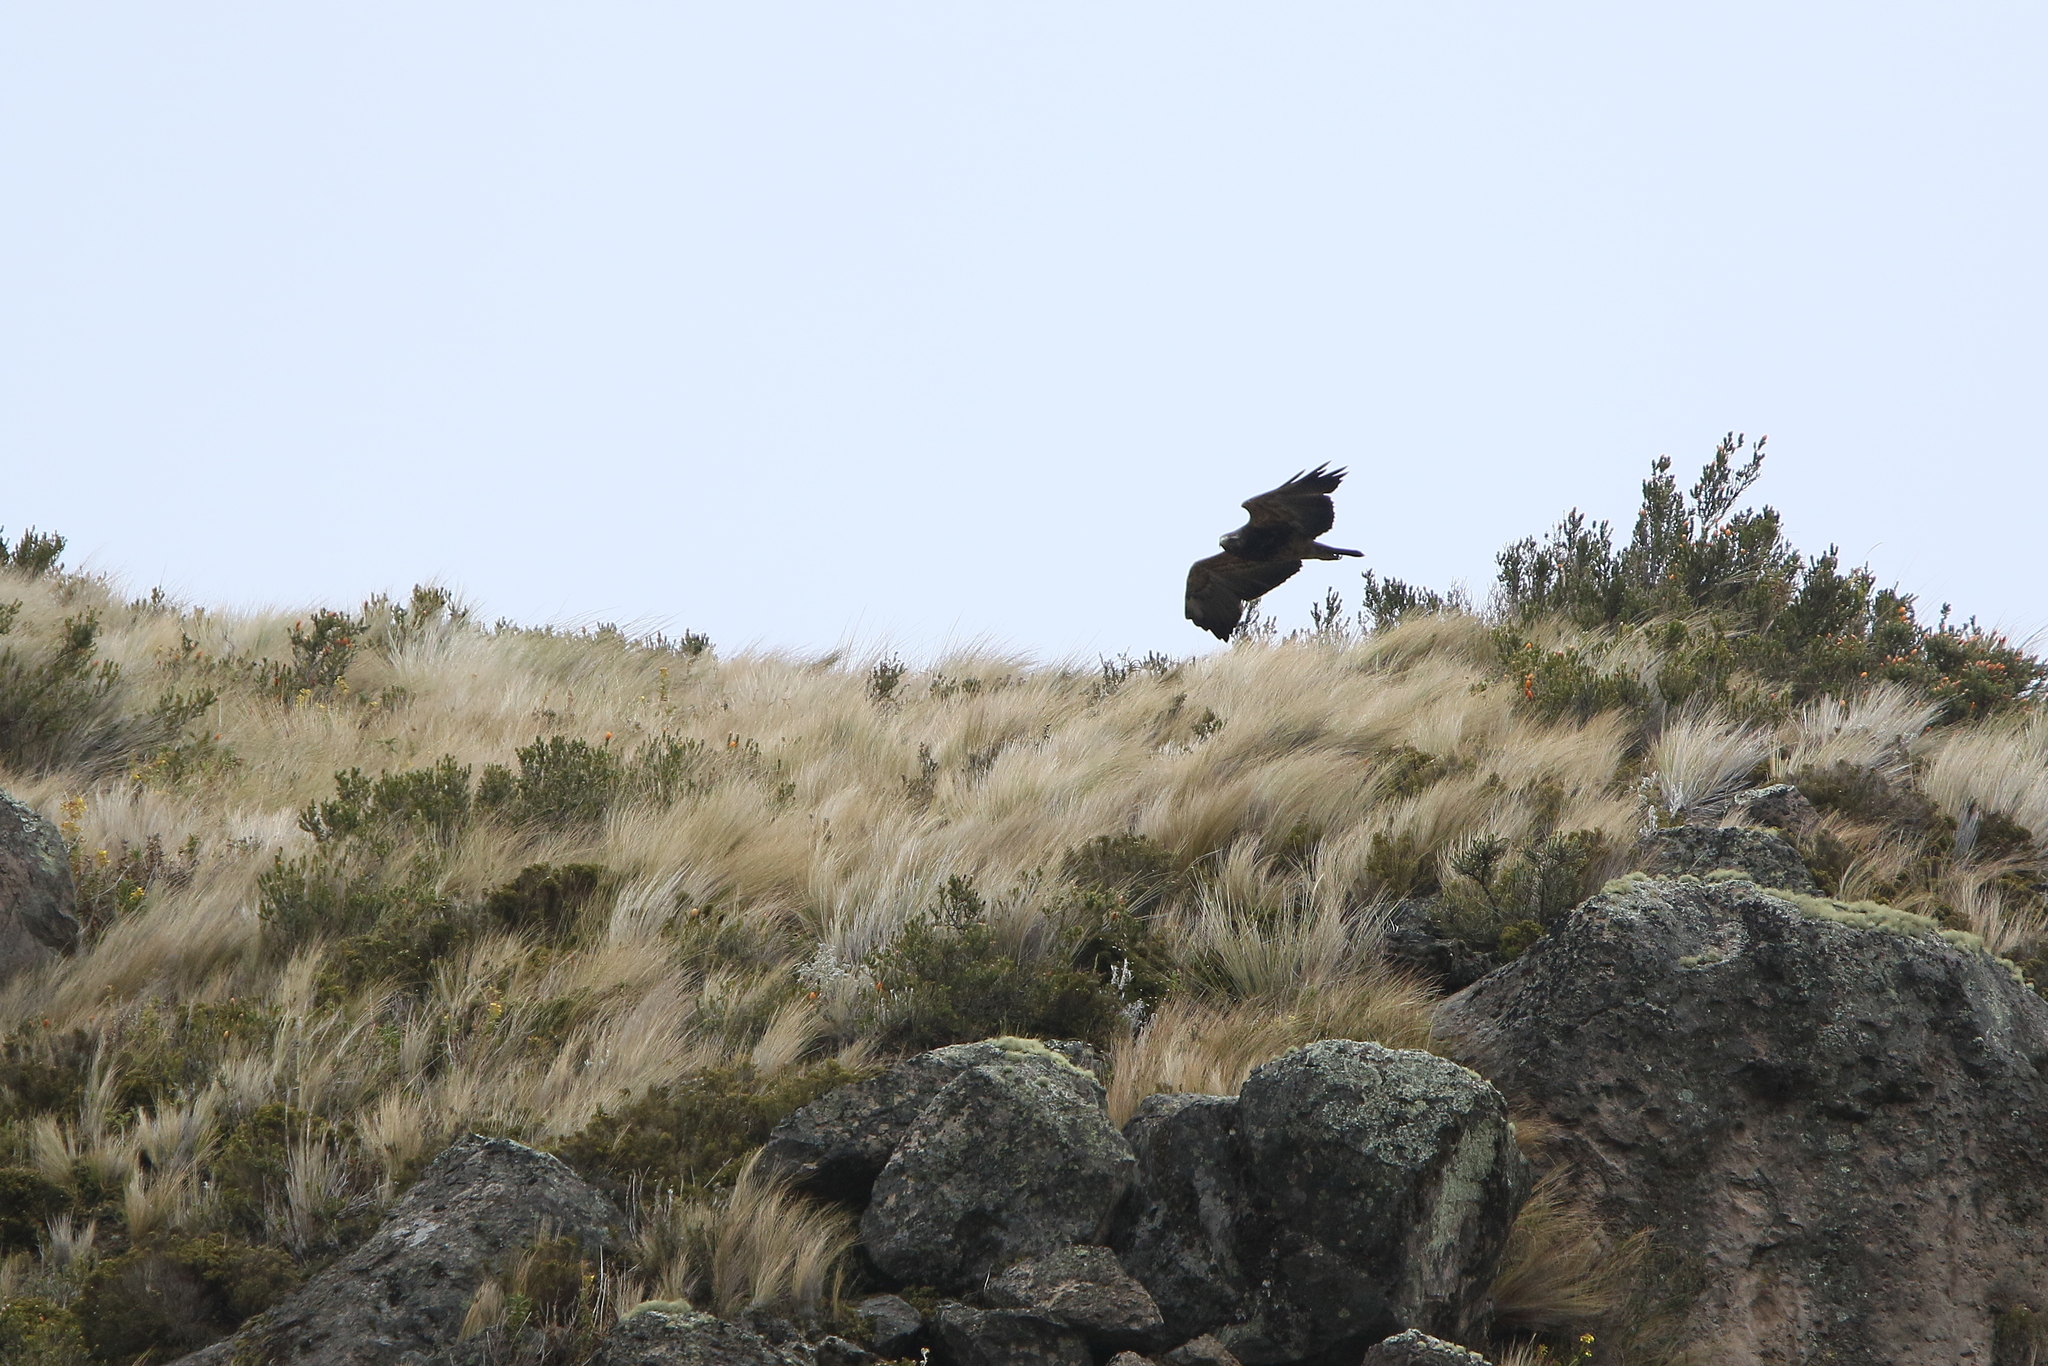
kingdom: Animalia
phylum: Chordata
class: Aves
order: Accipitriformes
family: Accipitridae
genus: Geranoaetus
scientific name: Geranoaetus melanoleucus
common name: Black-chested buzzard-eagle
